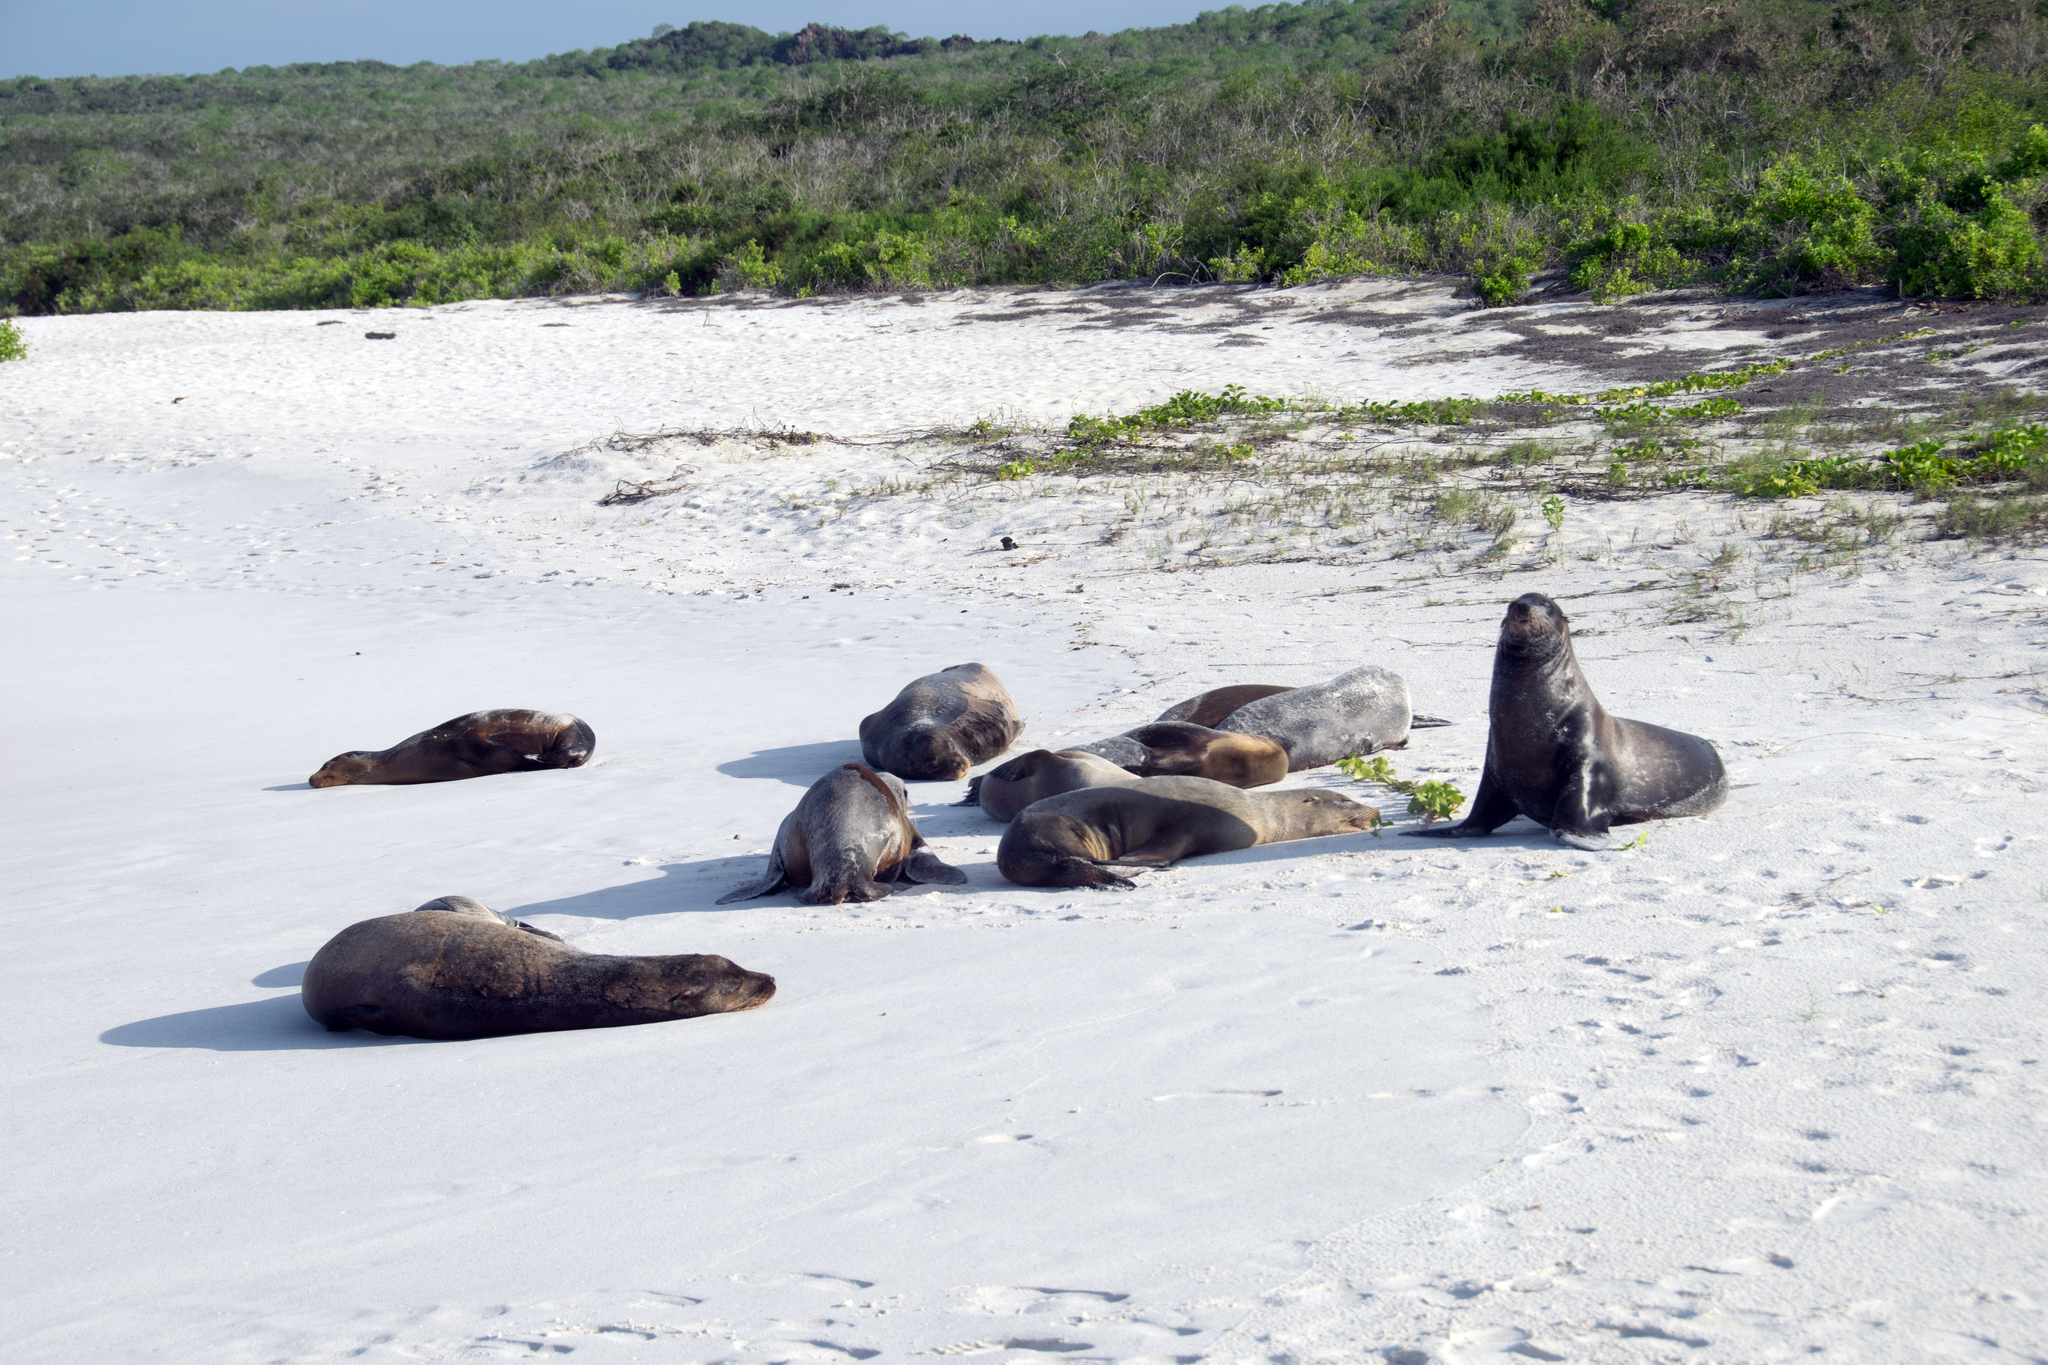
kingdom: Animalia
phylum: Chordata
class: Mammalia
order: Carnivora
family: Otariidae
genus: Zalophus
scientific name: Zalophus wollebaeki
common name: Galapagos sea lion
